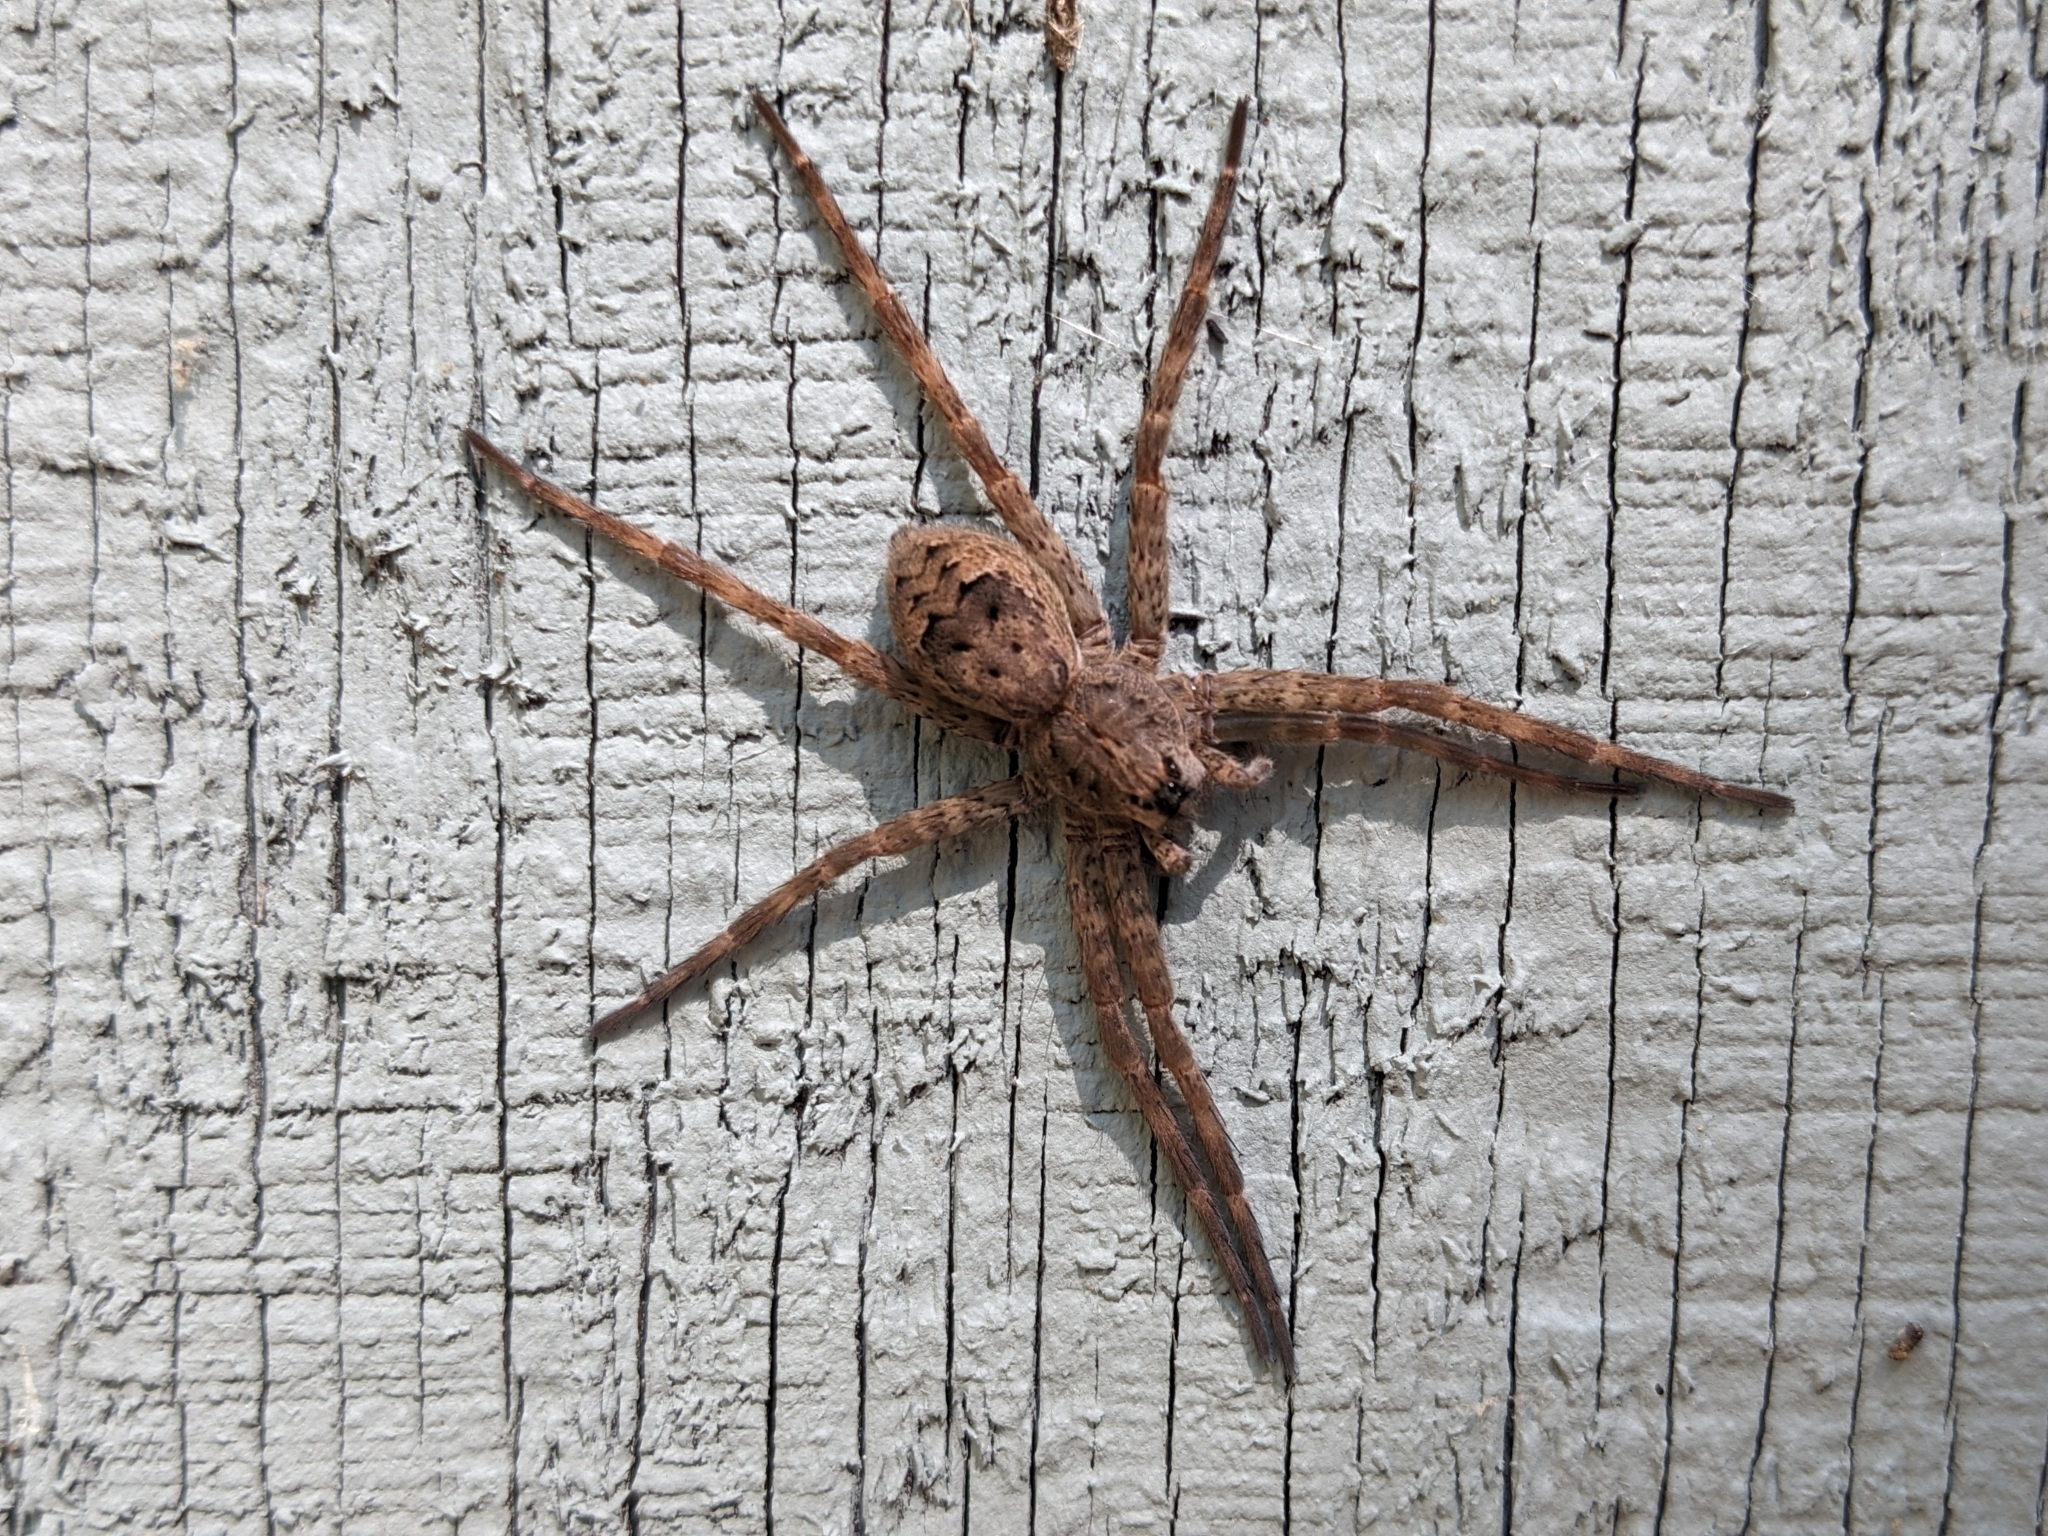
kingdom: Animalia
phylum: Arthropoda
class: Arachnida
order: Araneae
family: Pisauridae
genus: Dolomedes
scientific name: Dolomedes tenebrosus
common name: Dark fishing spider
